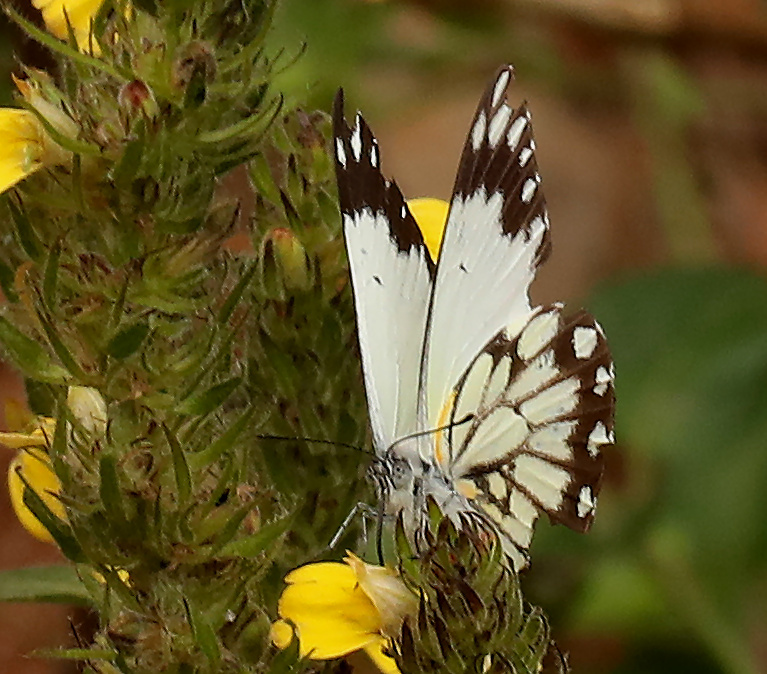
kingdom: Animalia
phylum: Arthropoda
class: Insecta
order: Lepidoptera
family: Pieridae
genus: Belenois
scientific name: Belenois creona
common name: African caper white
